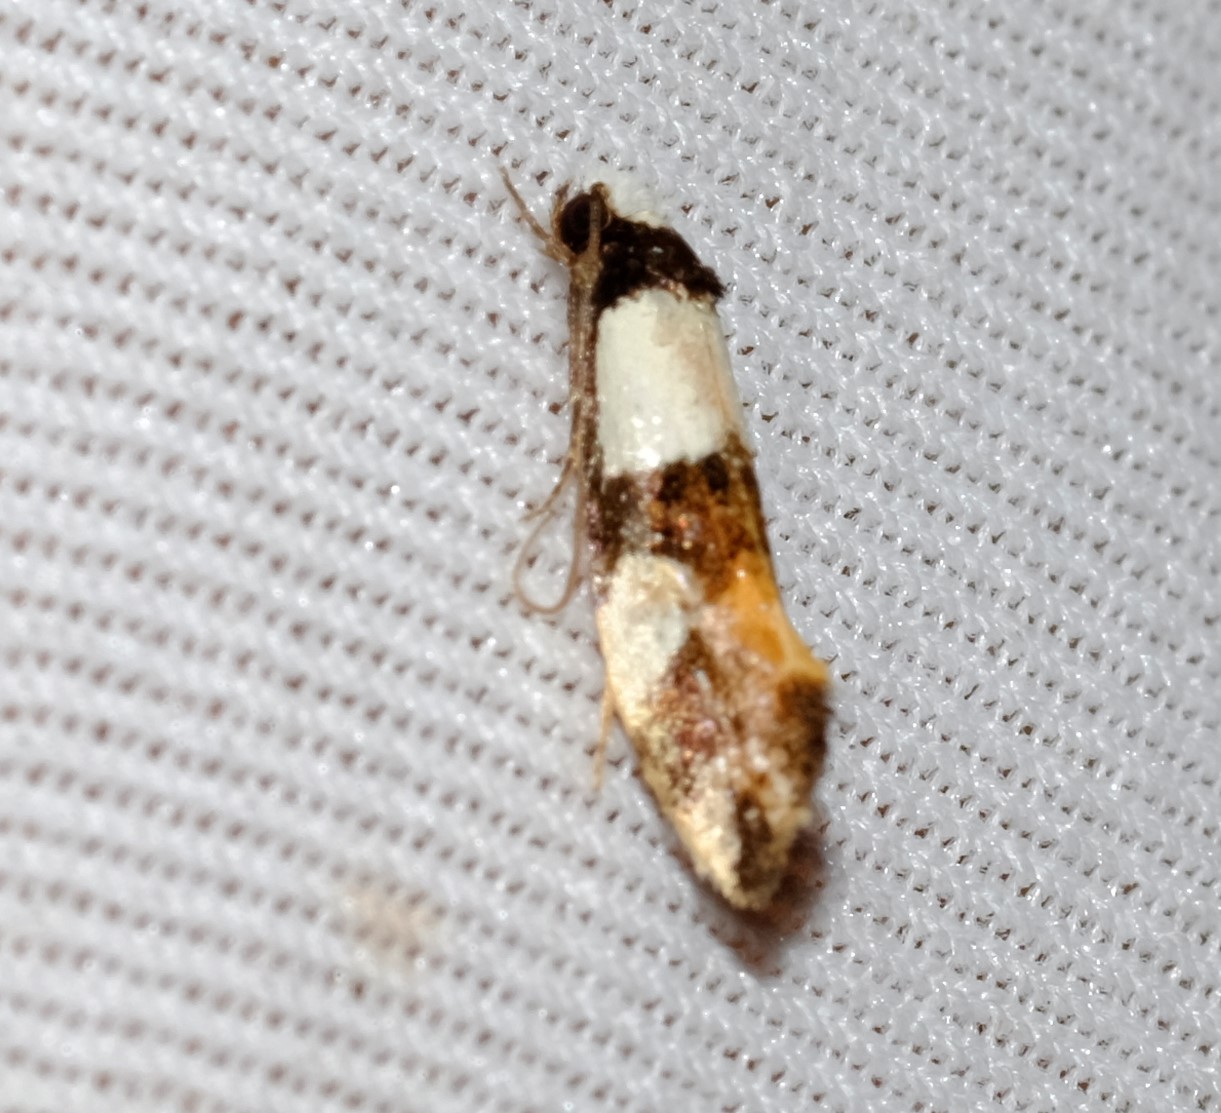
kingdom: Animalia
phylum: Arthropoda
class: Insecta
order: Lepidoptera
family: Tineidae
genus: Monopis
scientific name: Monopis icterogastra
